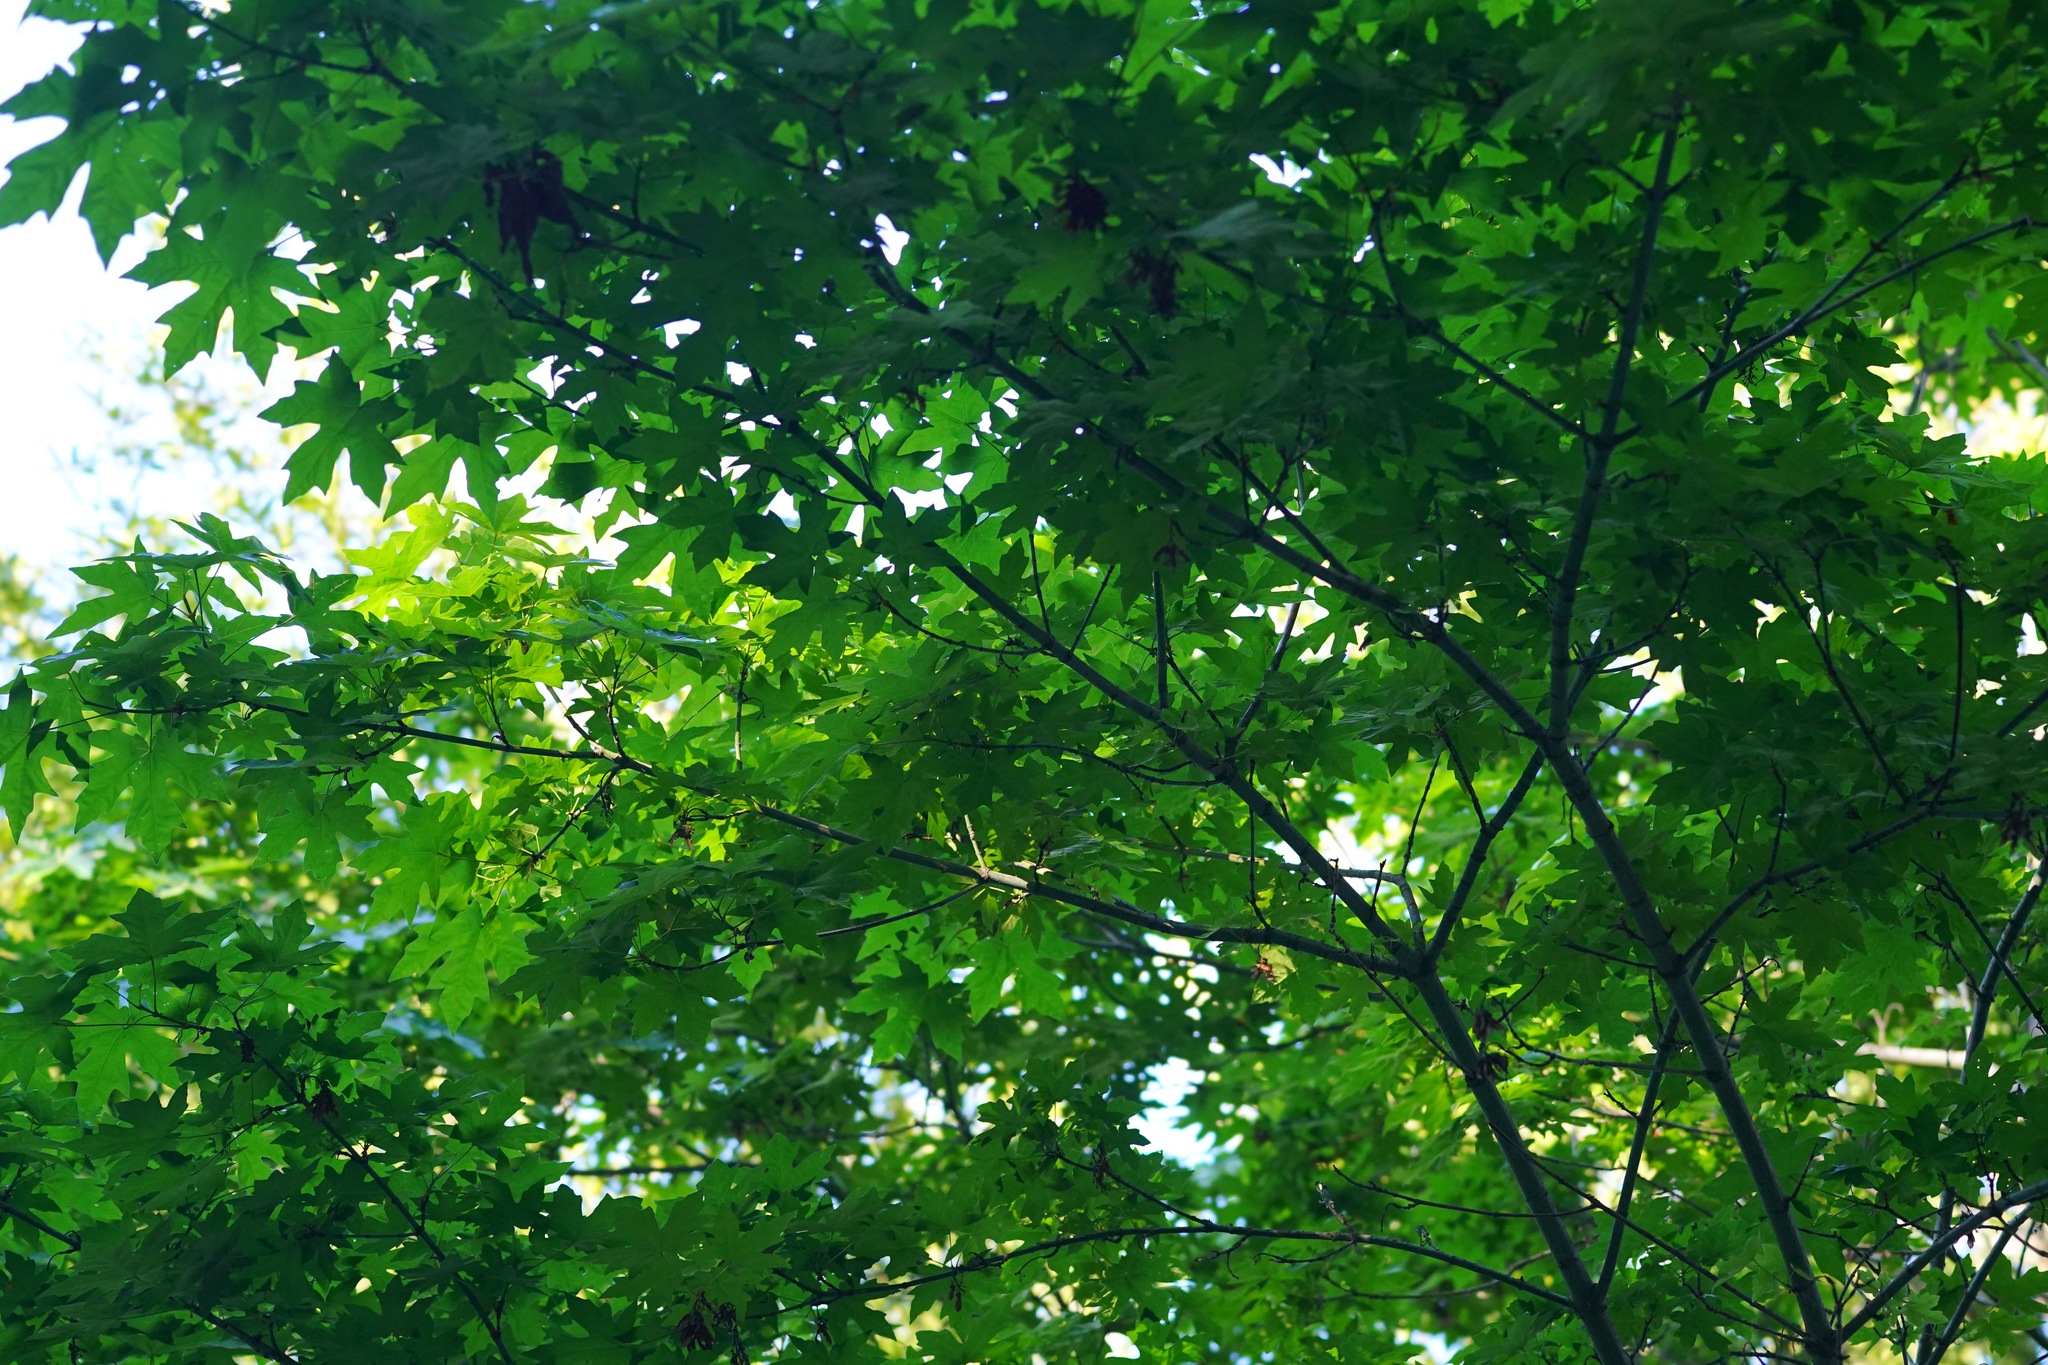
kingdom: Plantae
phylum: Tracheophyta
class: Magnoliopsida
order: Sapindales
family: Sapindaceae
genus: Acer
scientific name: Acer macrophyllum
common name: Oregon maple
